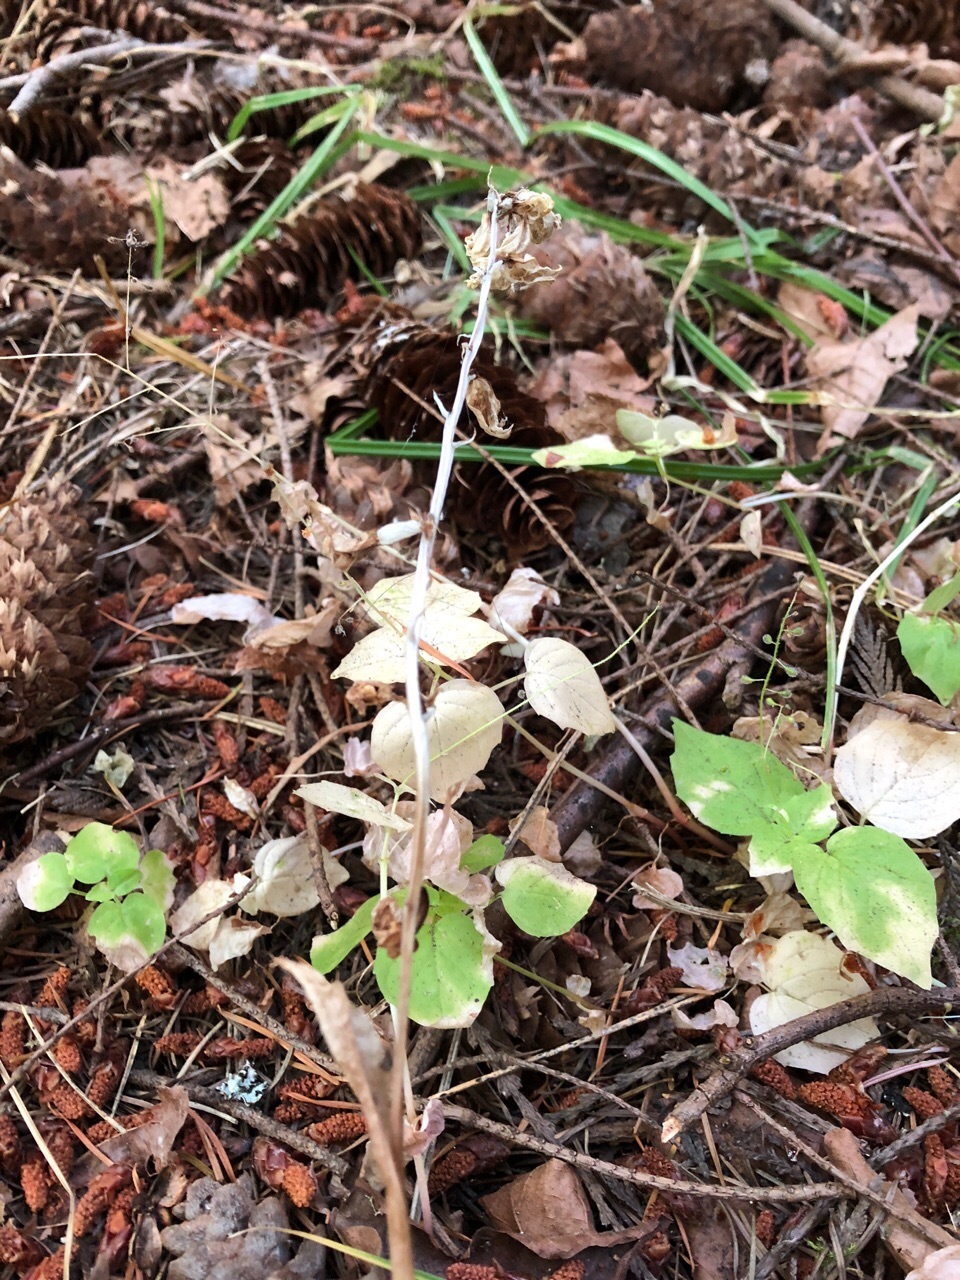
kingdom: Plantae
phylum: Tracheophyta
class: Liliopsida
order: Asparagales
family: Orchidaceae
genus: Cephalanthera
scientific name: Cephalanthera austiniae
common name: Phantom orchid
